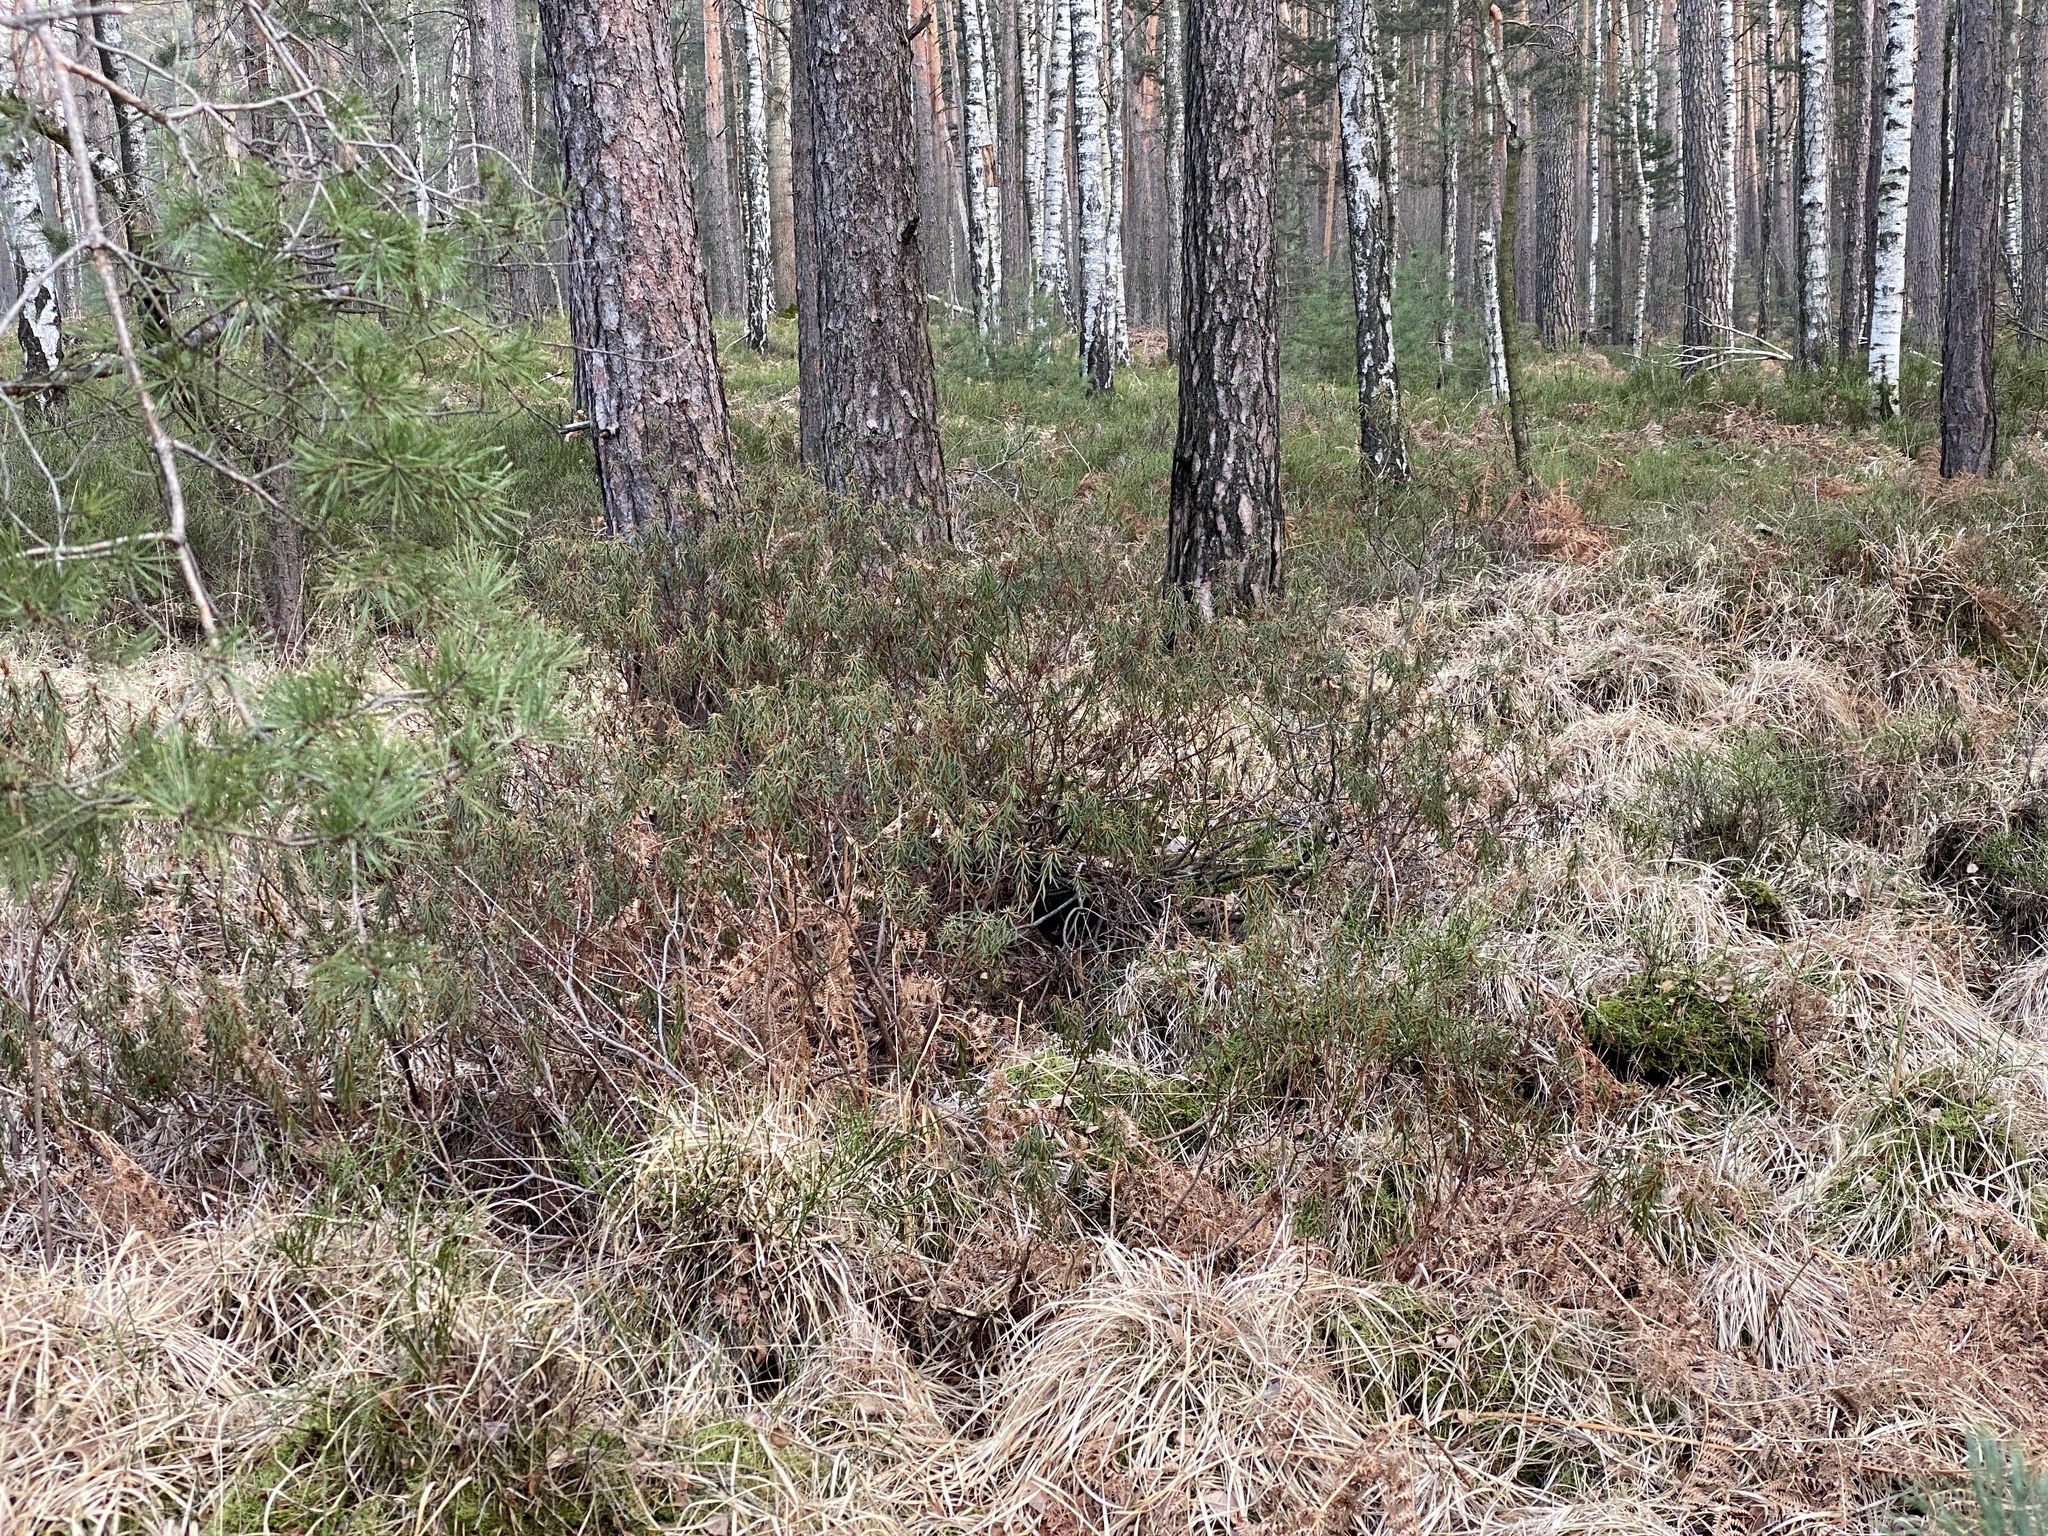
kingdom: Plantae
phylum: Tracheophyta
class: Magnoliopsida
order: Ericales
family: Ericaceae
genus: Rhododendron
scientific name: Rhododendron tomentosum
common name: Marsh labrador tea
